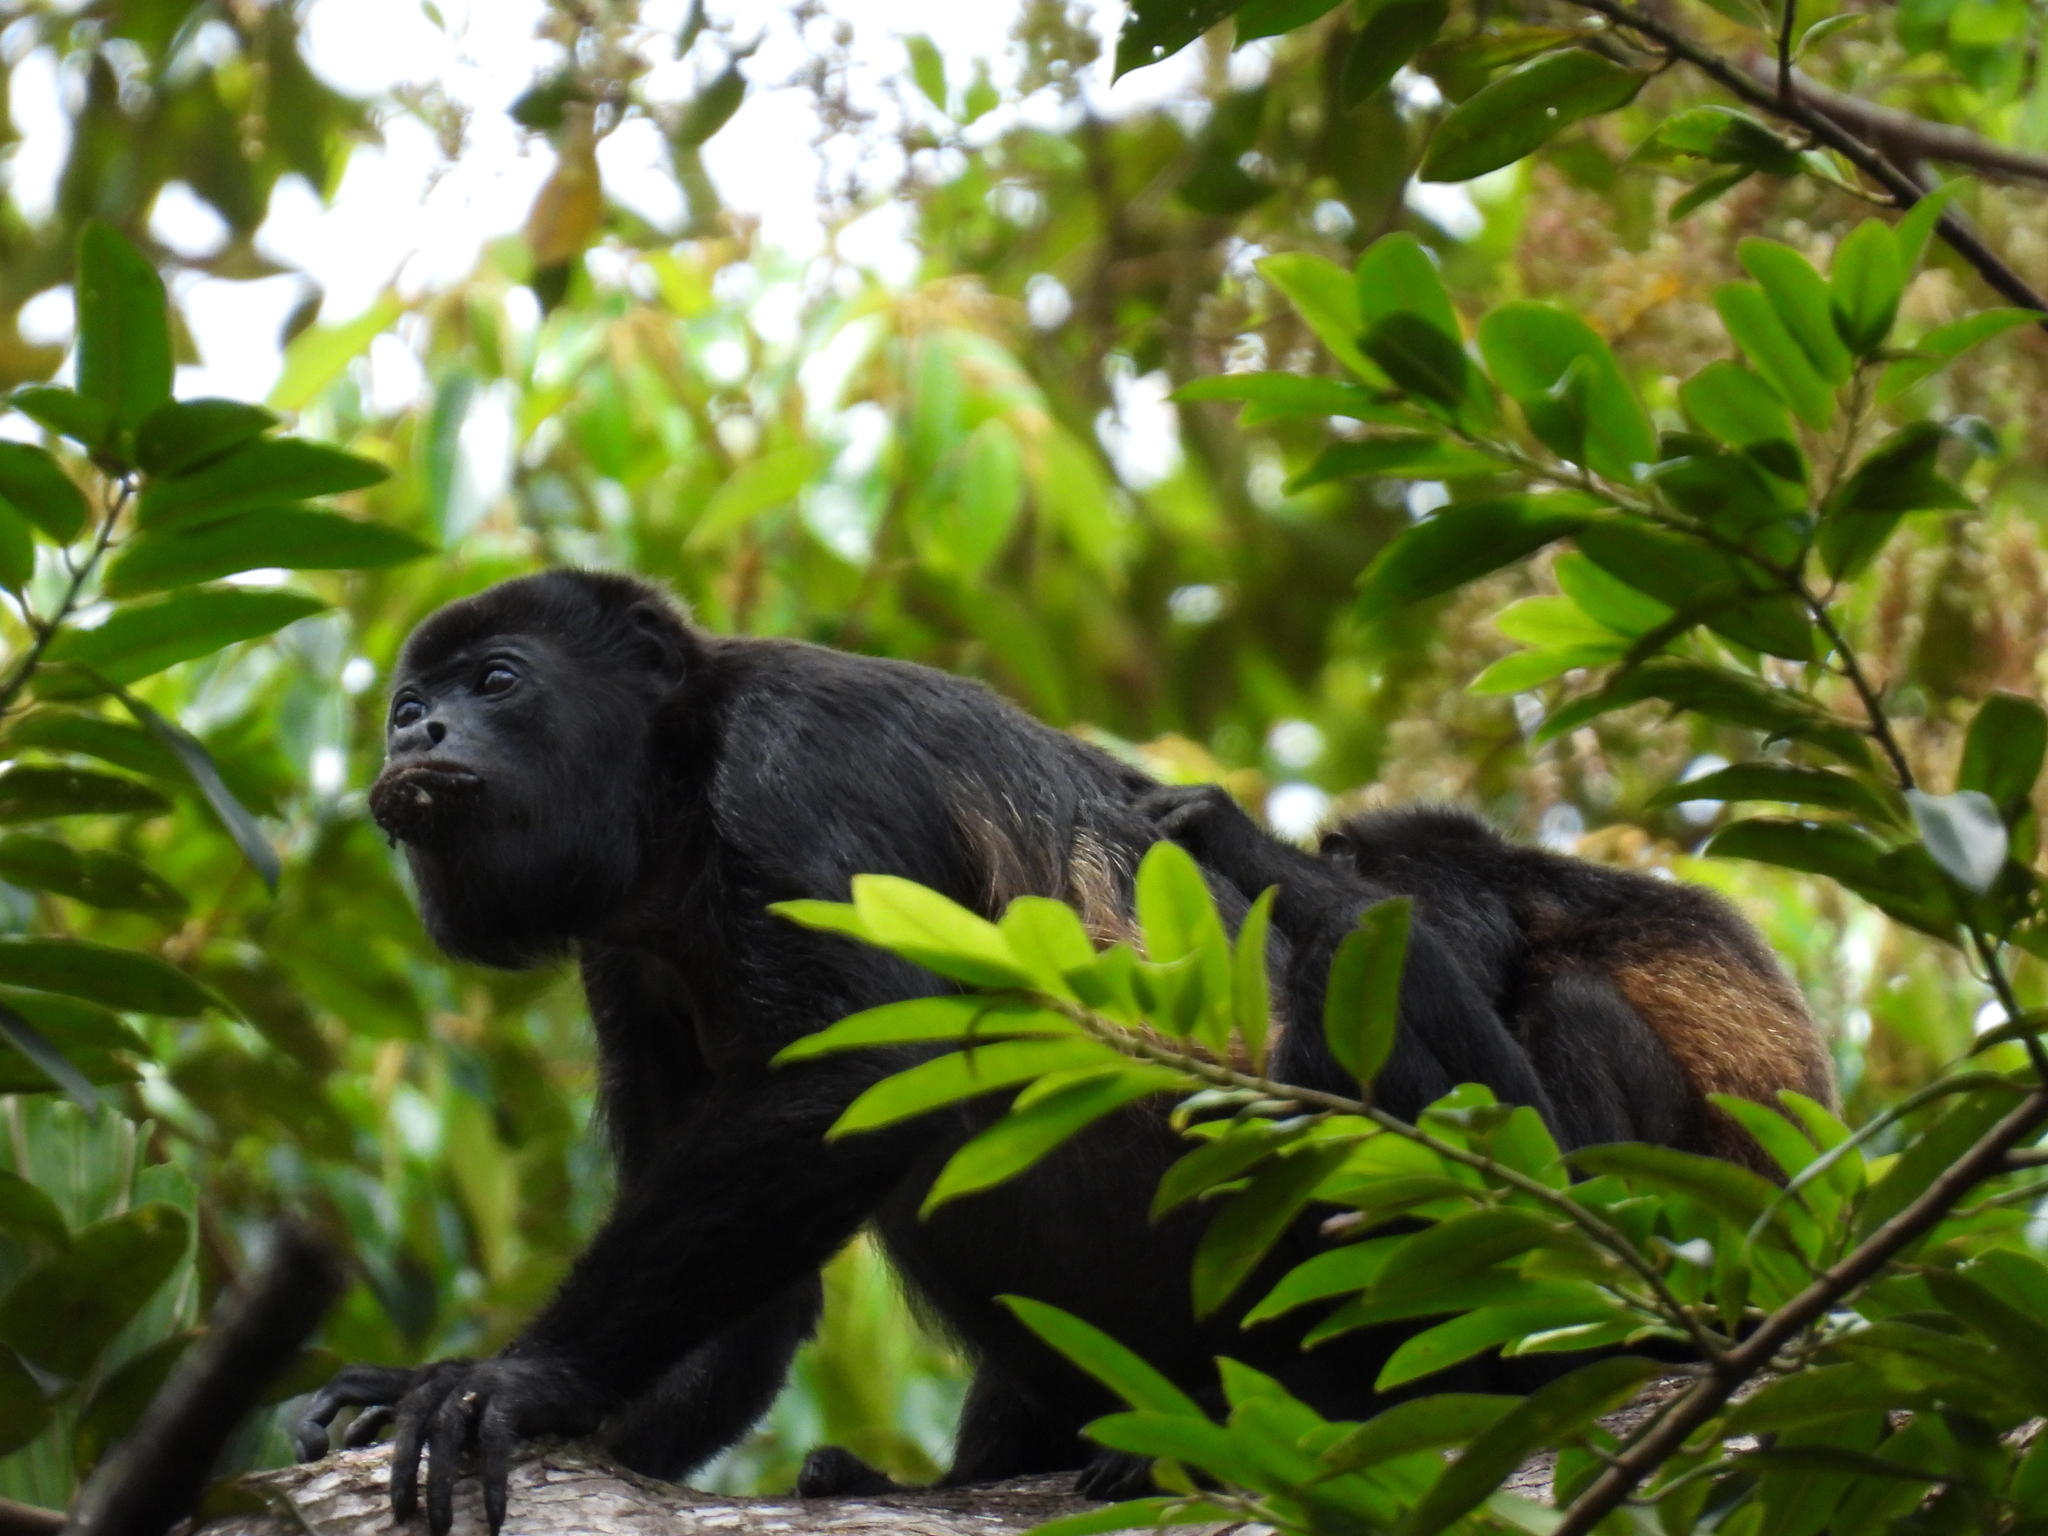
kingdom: Animalia
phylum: Chordata
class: Mammalia
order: Primates
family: Atelidae
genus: Alouatta
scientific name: Alouatta palliata
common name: Mantled howler
